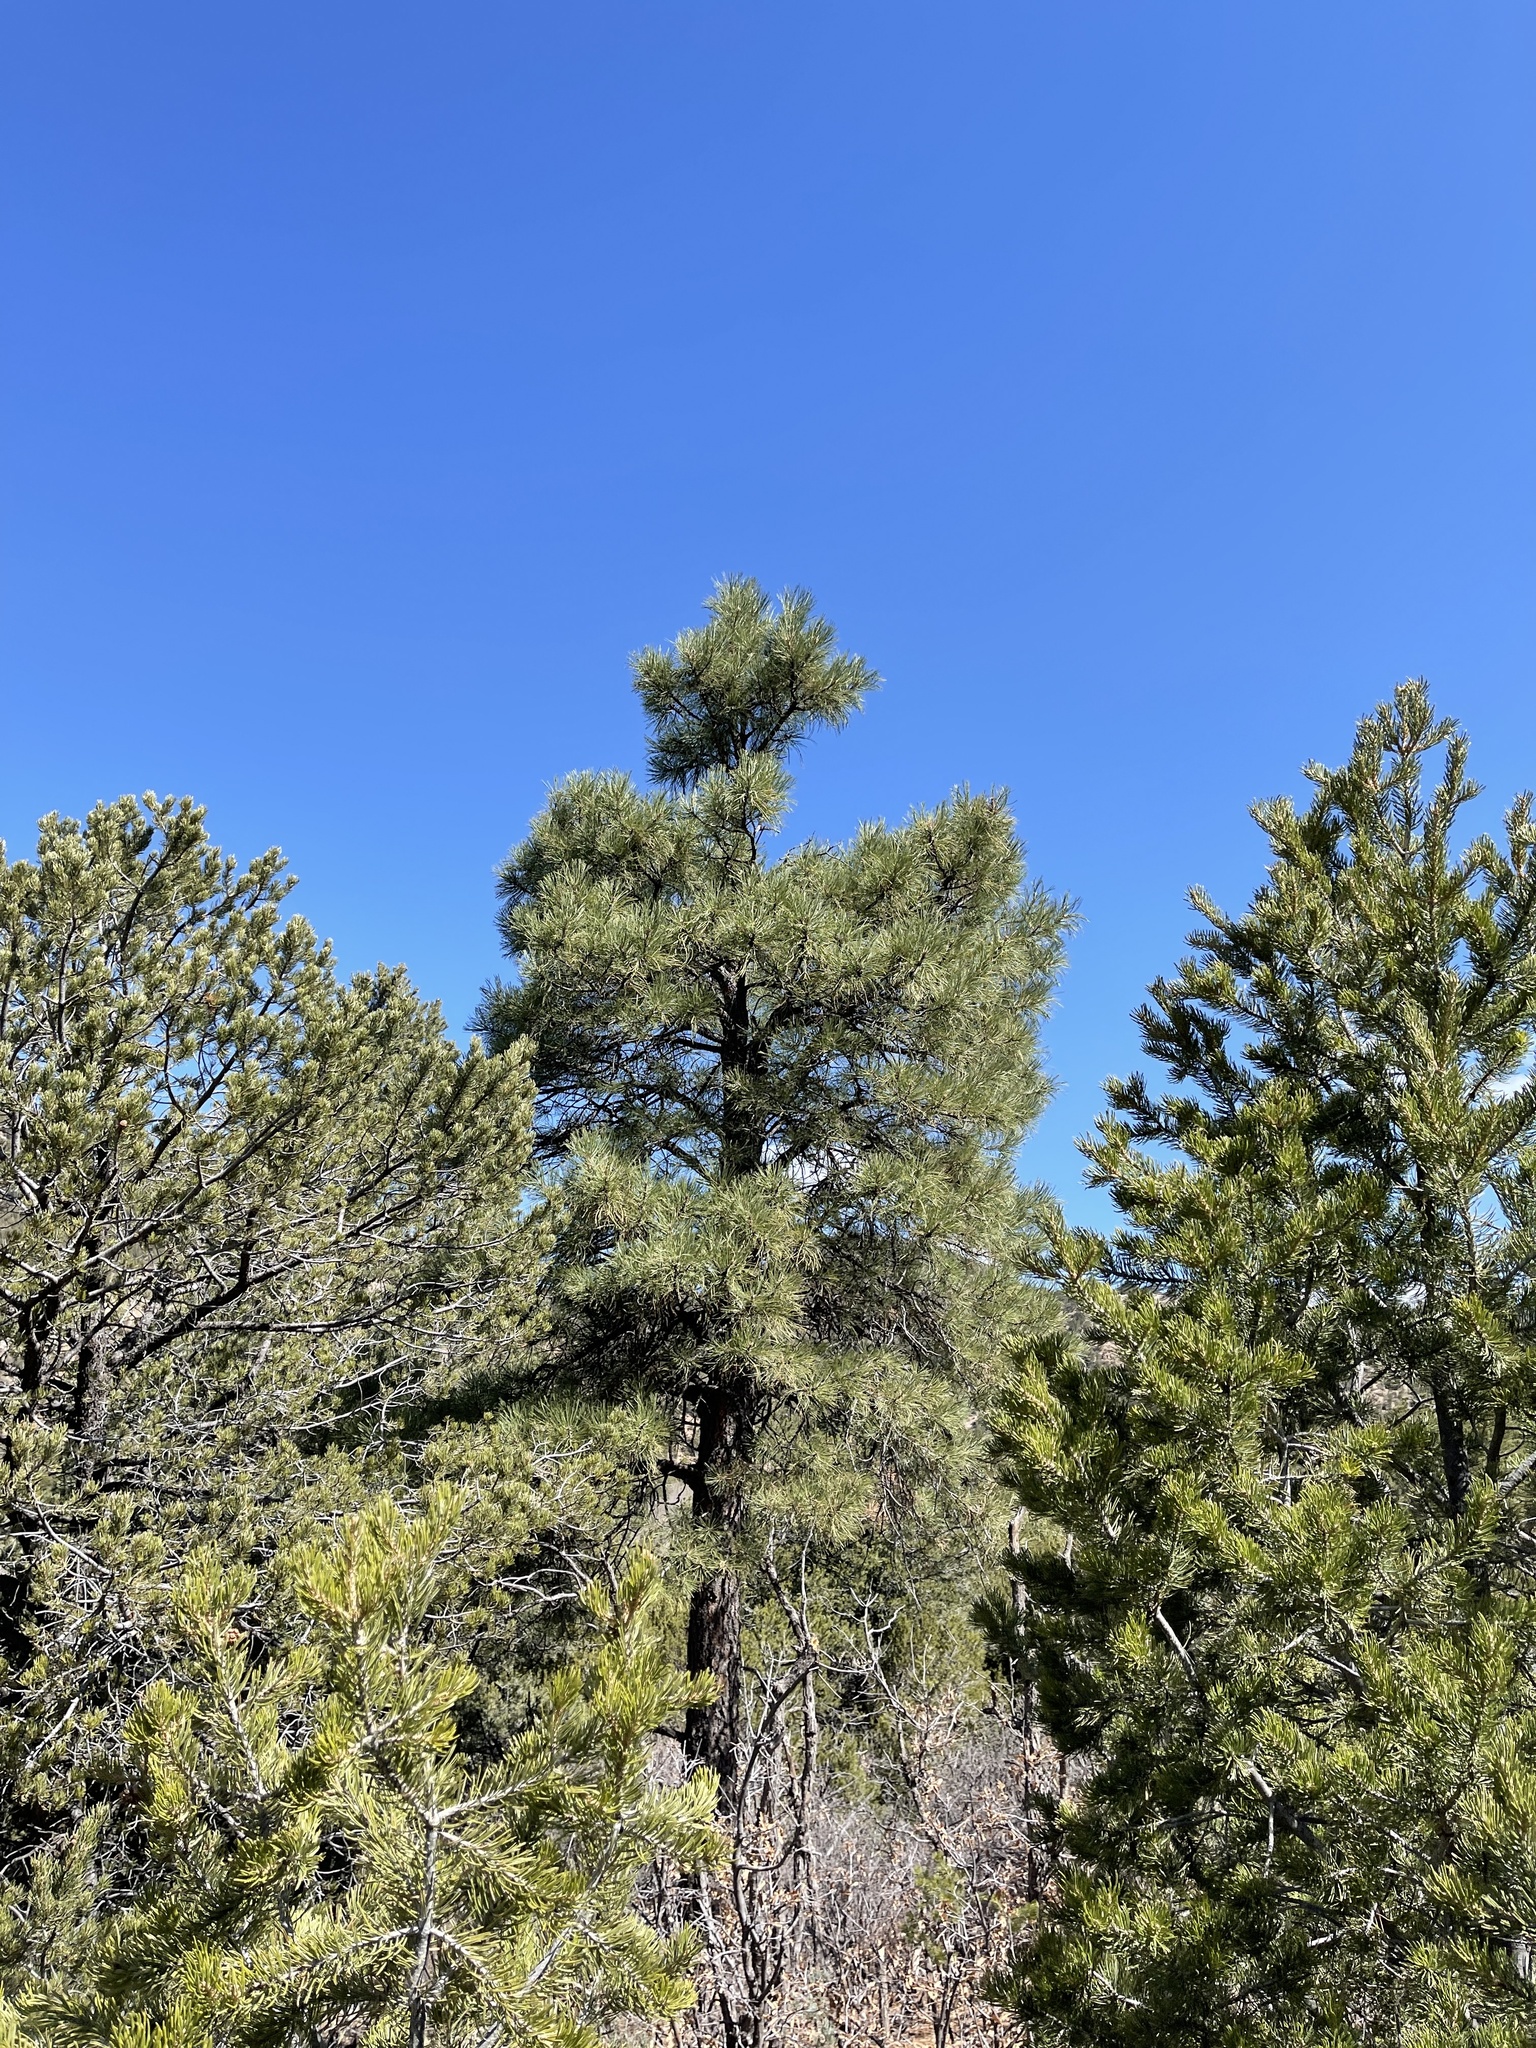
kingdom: Plantae
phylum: Tracheophyta
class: Pinopsida
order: Pinales
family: Pinaceae
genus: Pinus
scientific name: Pinus ponderosa
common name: Western yellow-pine
